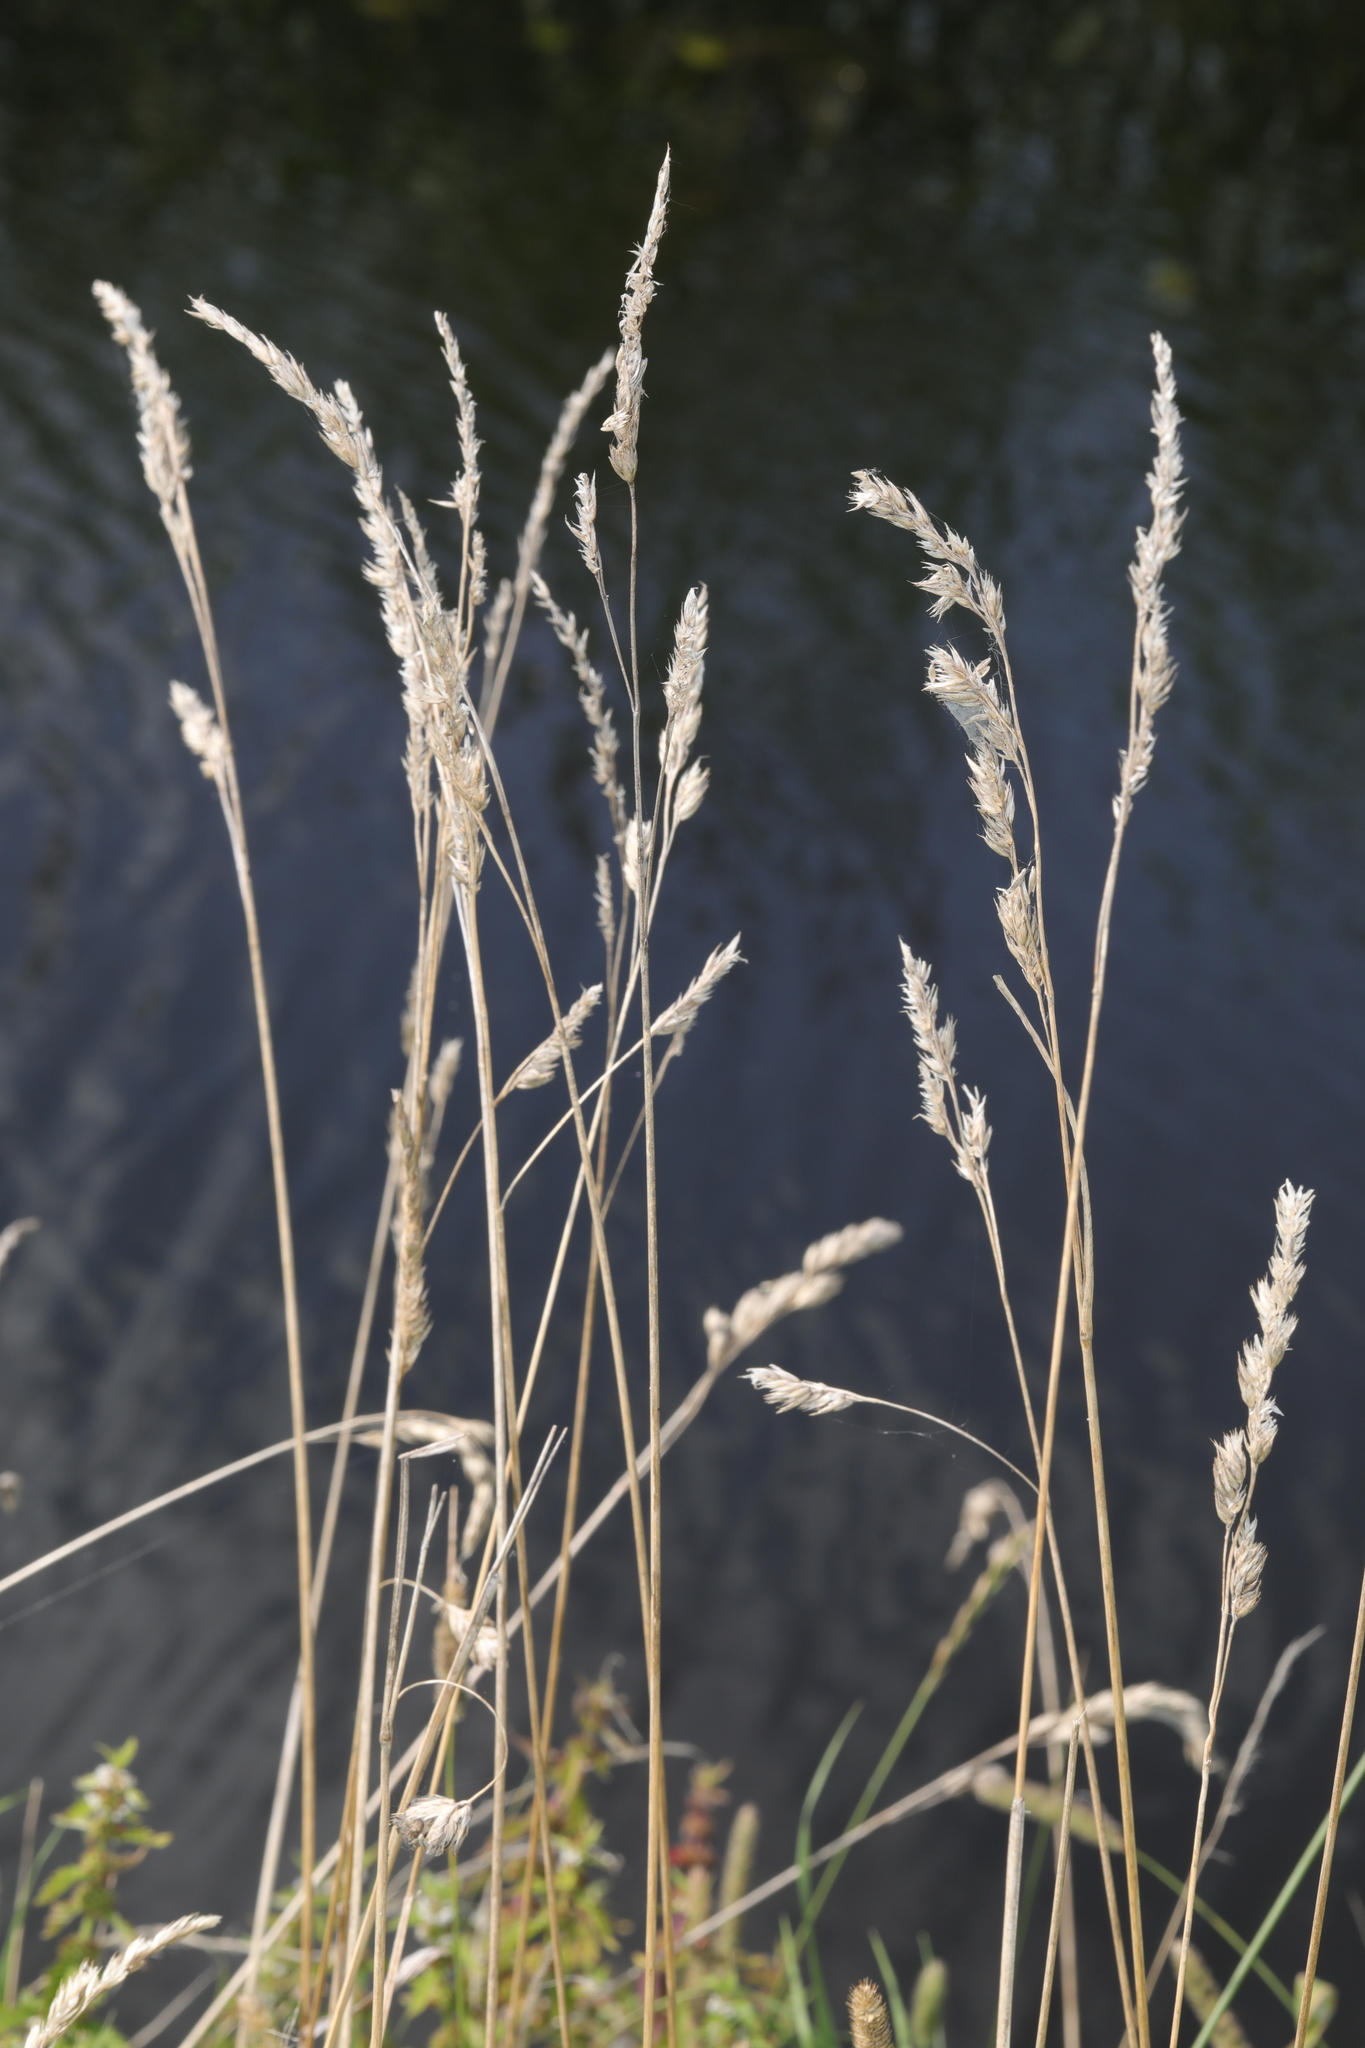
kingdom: Plantae
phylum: Tracheophyta
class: Liliopsida
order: Poales
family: Poaceae
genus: Phalaris
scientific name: Phalaris arundinacea
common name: Reed canary-grass
